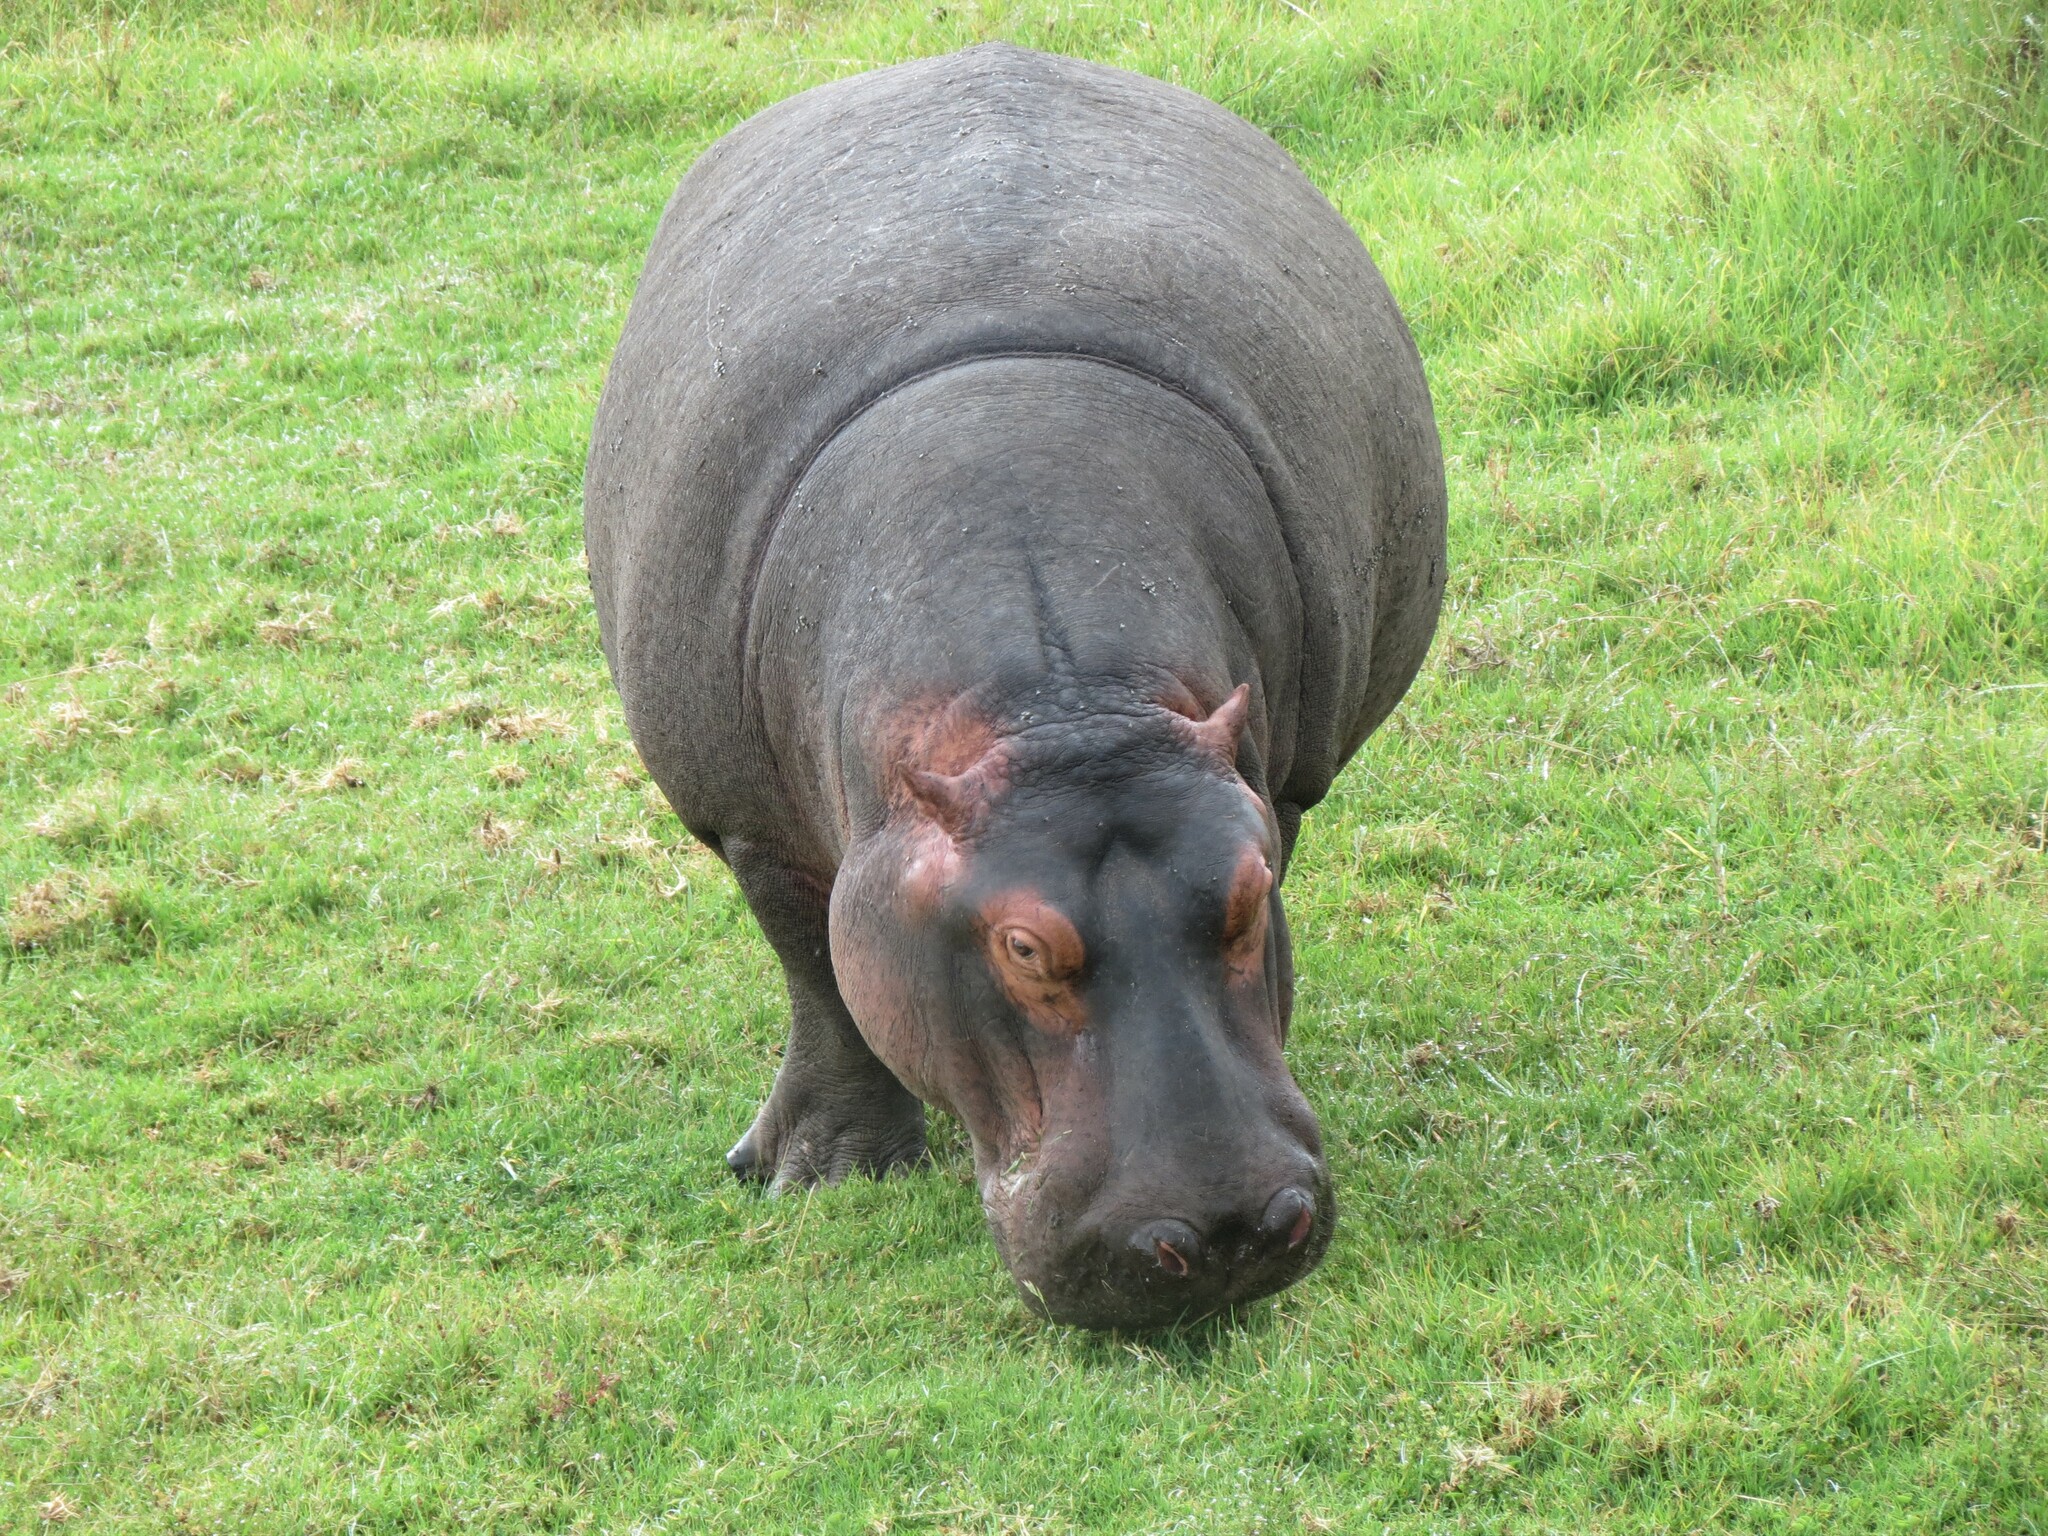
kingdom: Animalia
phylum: Chordata
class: Mammalia
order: Artiodactyla
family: Hippopotamidae
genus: Hippopotamus
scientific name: Hippopotamus amphibius
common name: Common hippopotamus
